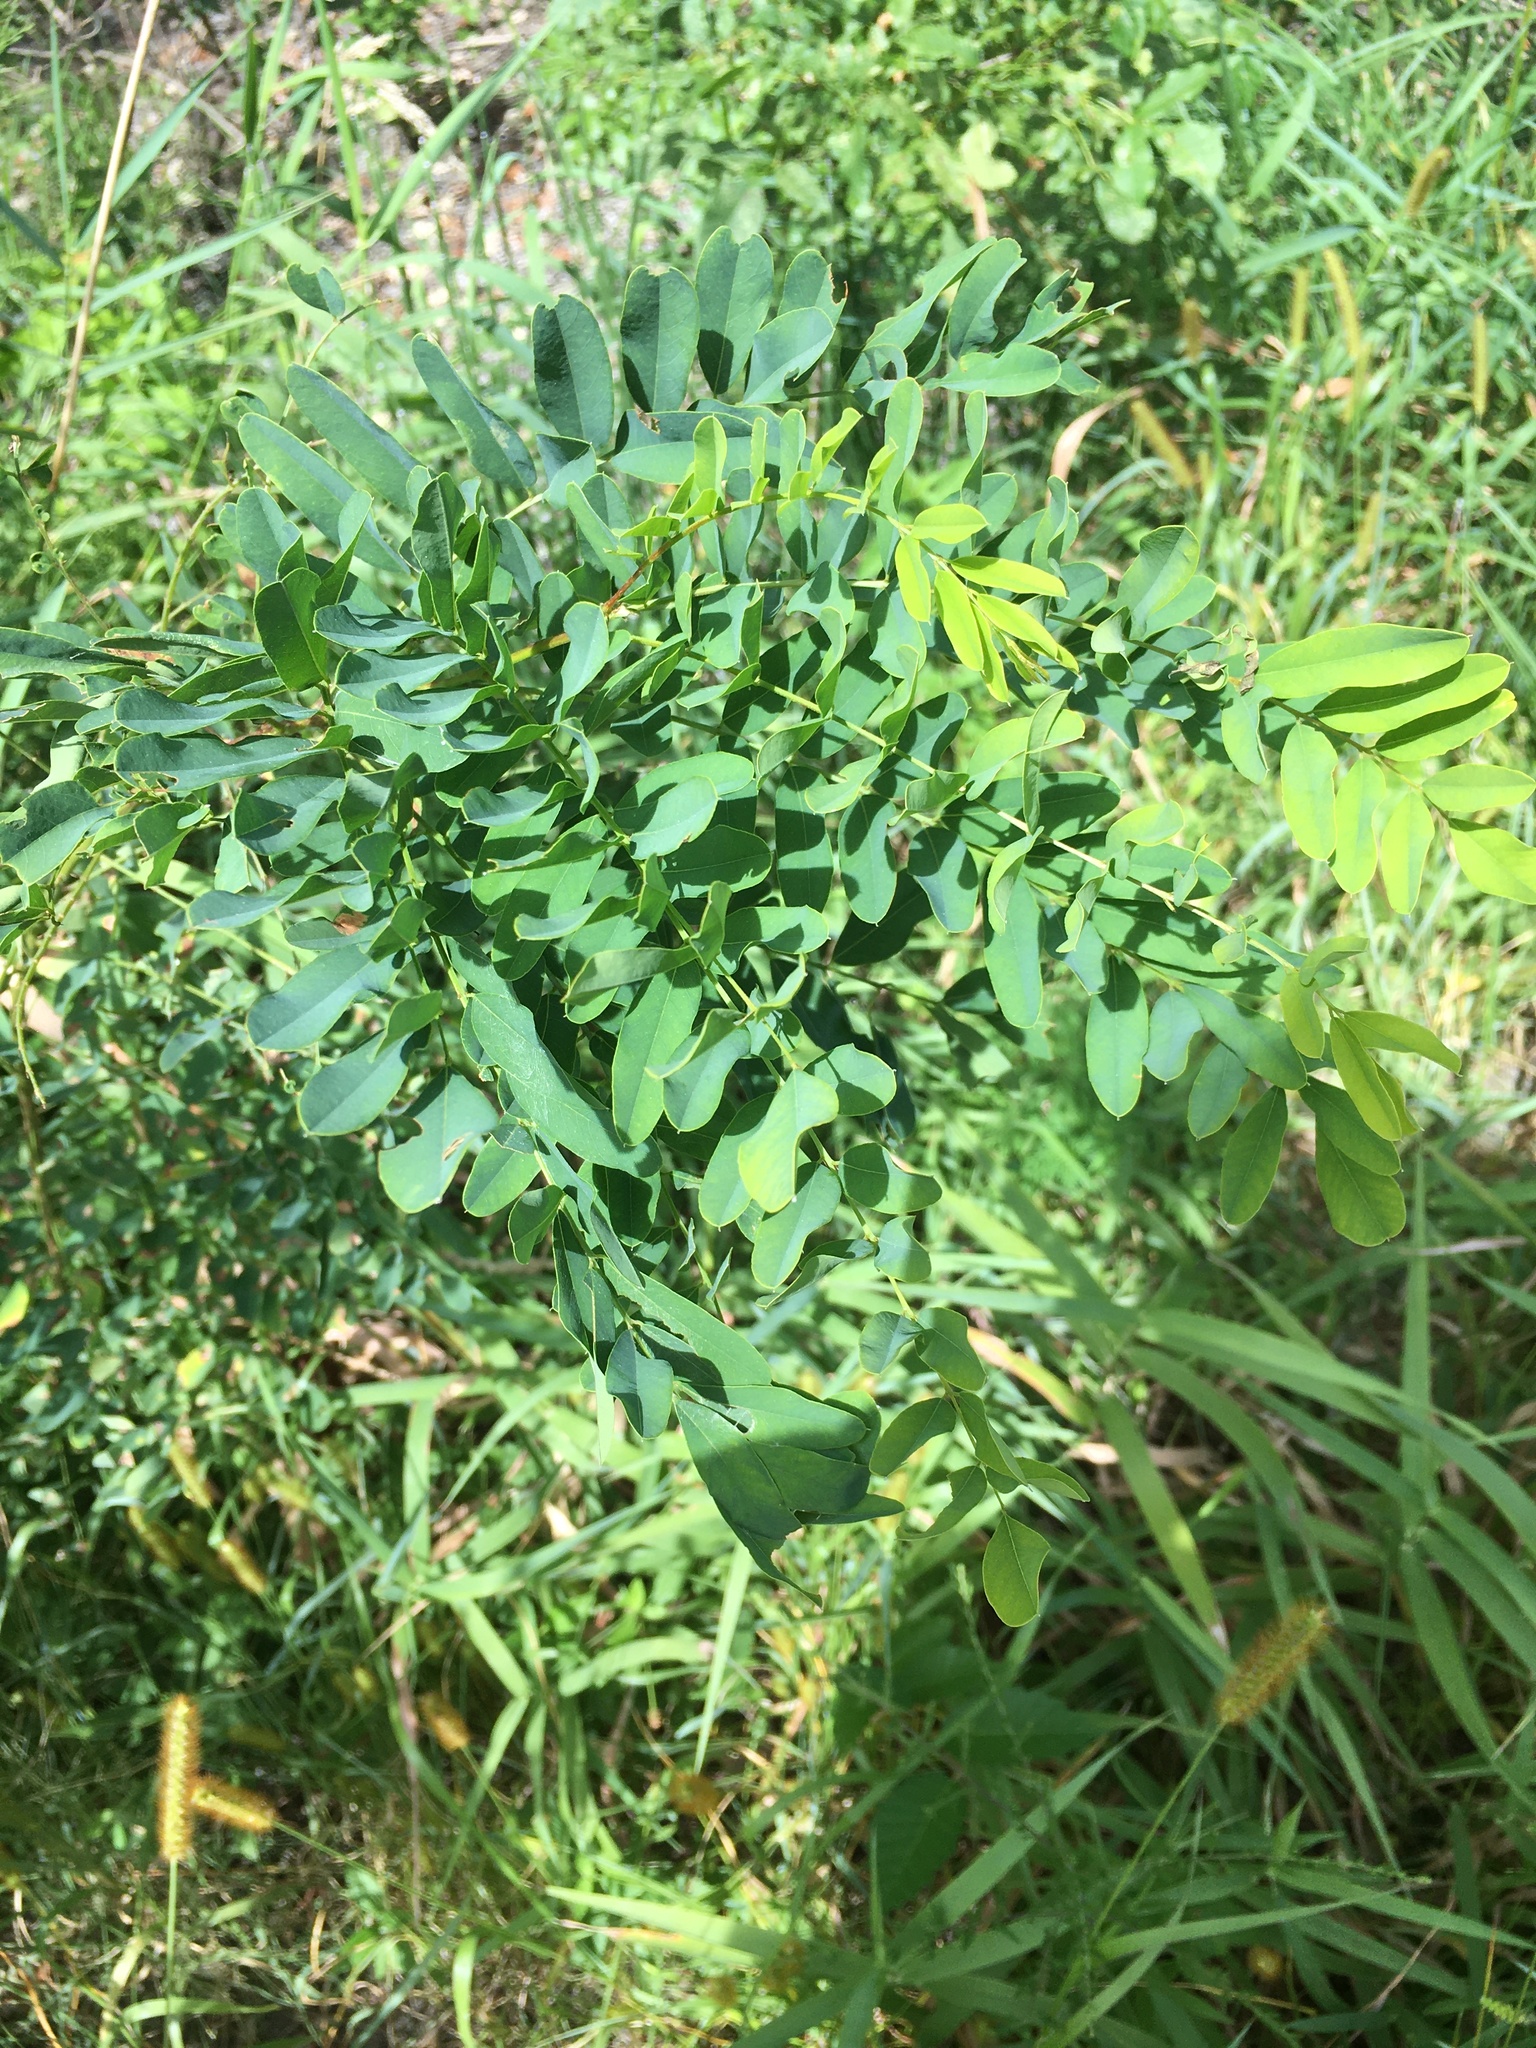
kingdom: Plantae
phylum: Tracheophyta
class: Magnoliopsida
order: Fabales
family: Fabaceae
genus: Amorpha
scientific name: Amorpha fruticosa
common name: False indigo
